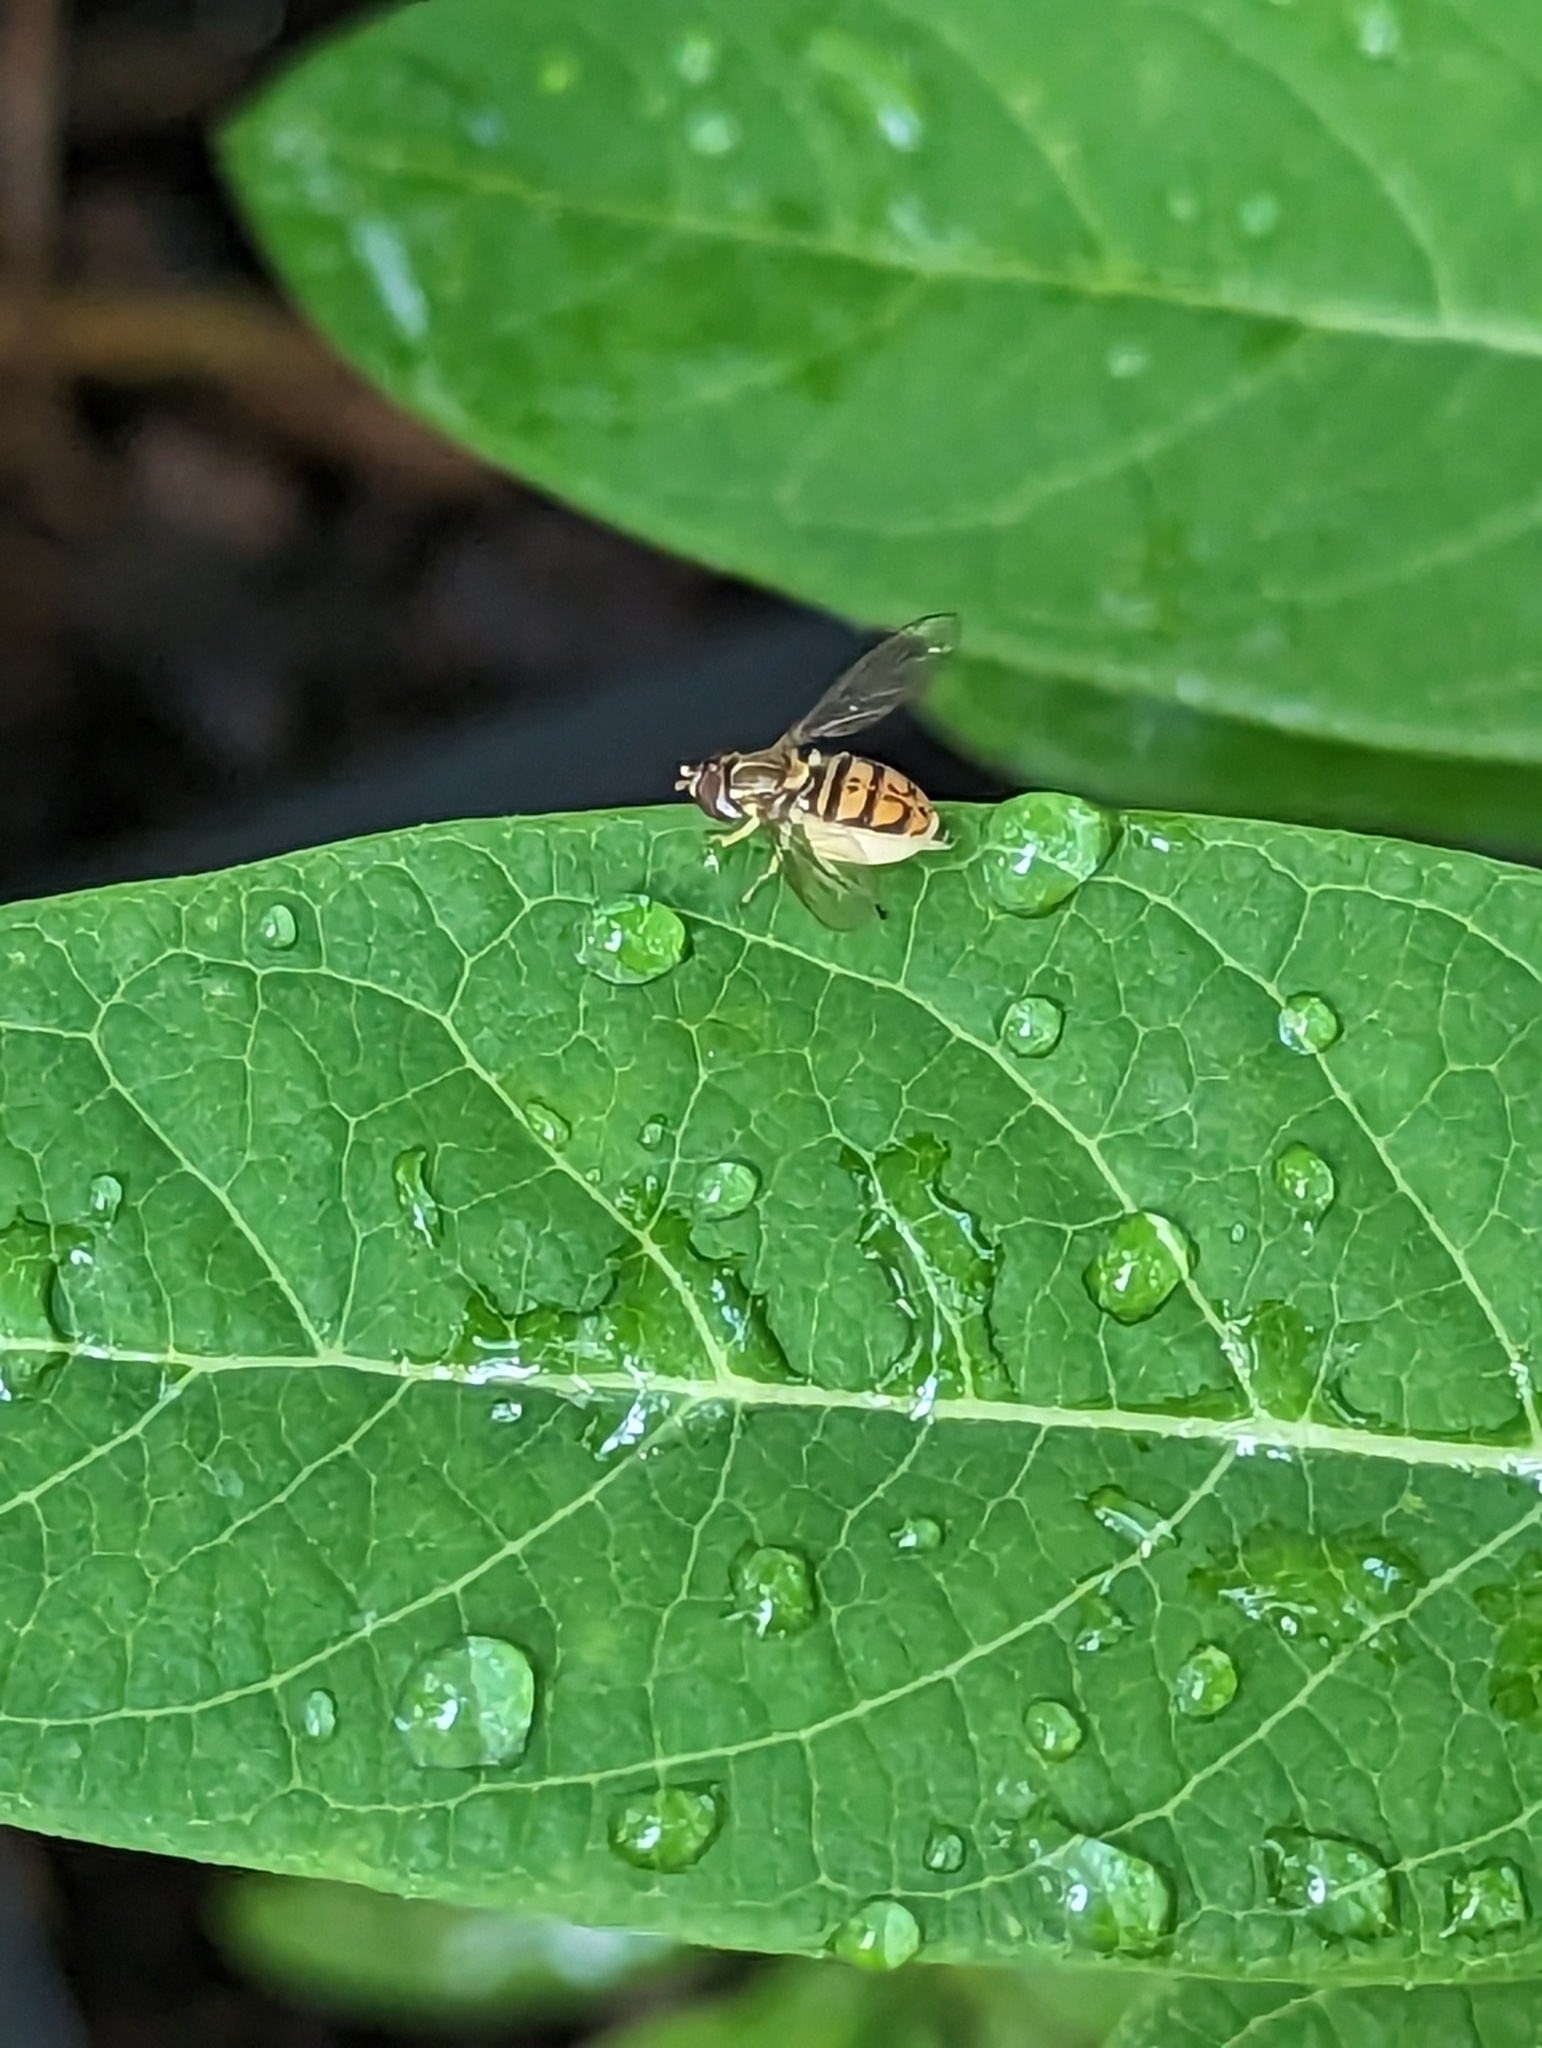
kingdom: Animalia
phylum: Arthropoda
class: Insecta
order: Diptera
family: Syrphidae
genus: Toxomerus
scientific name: Toxomerus marginatus
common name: Syrphid fly
